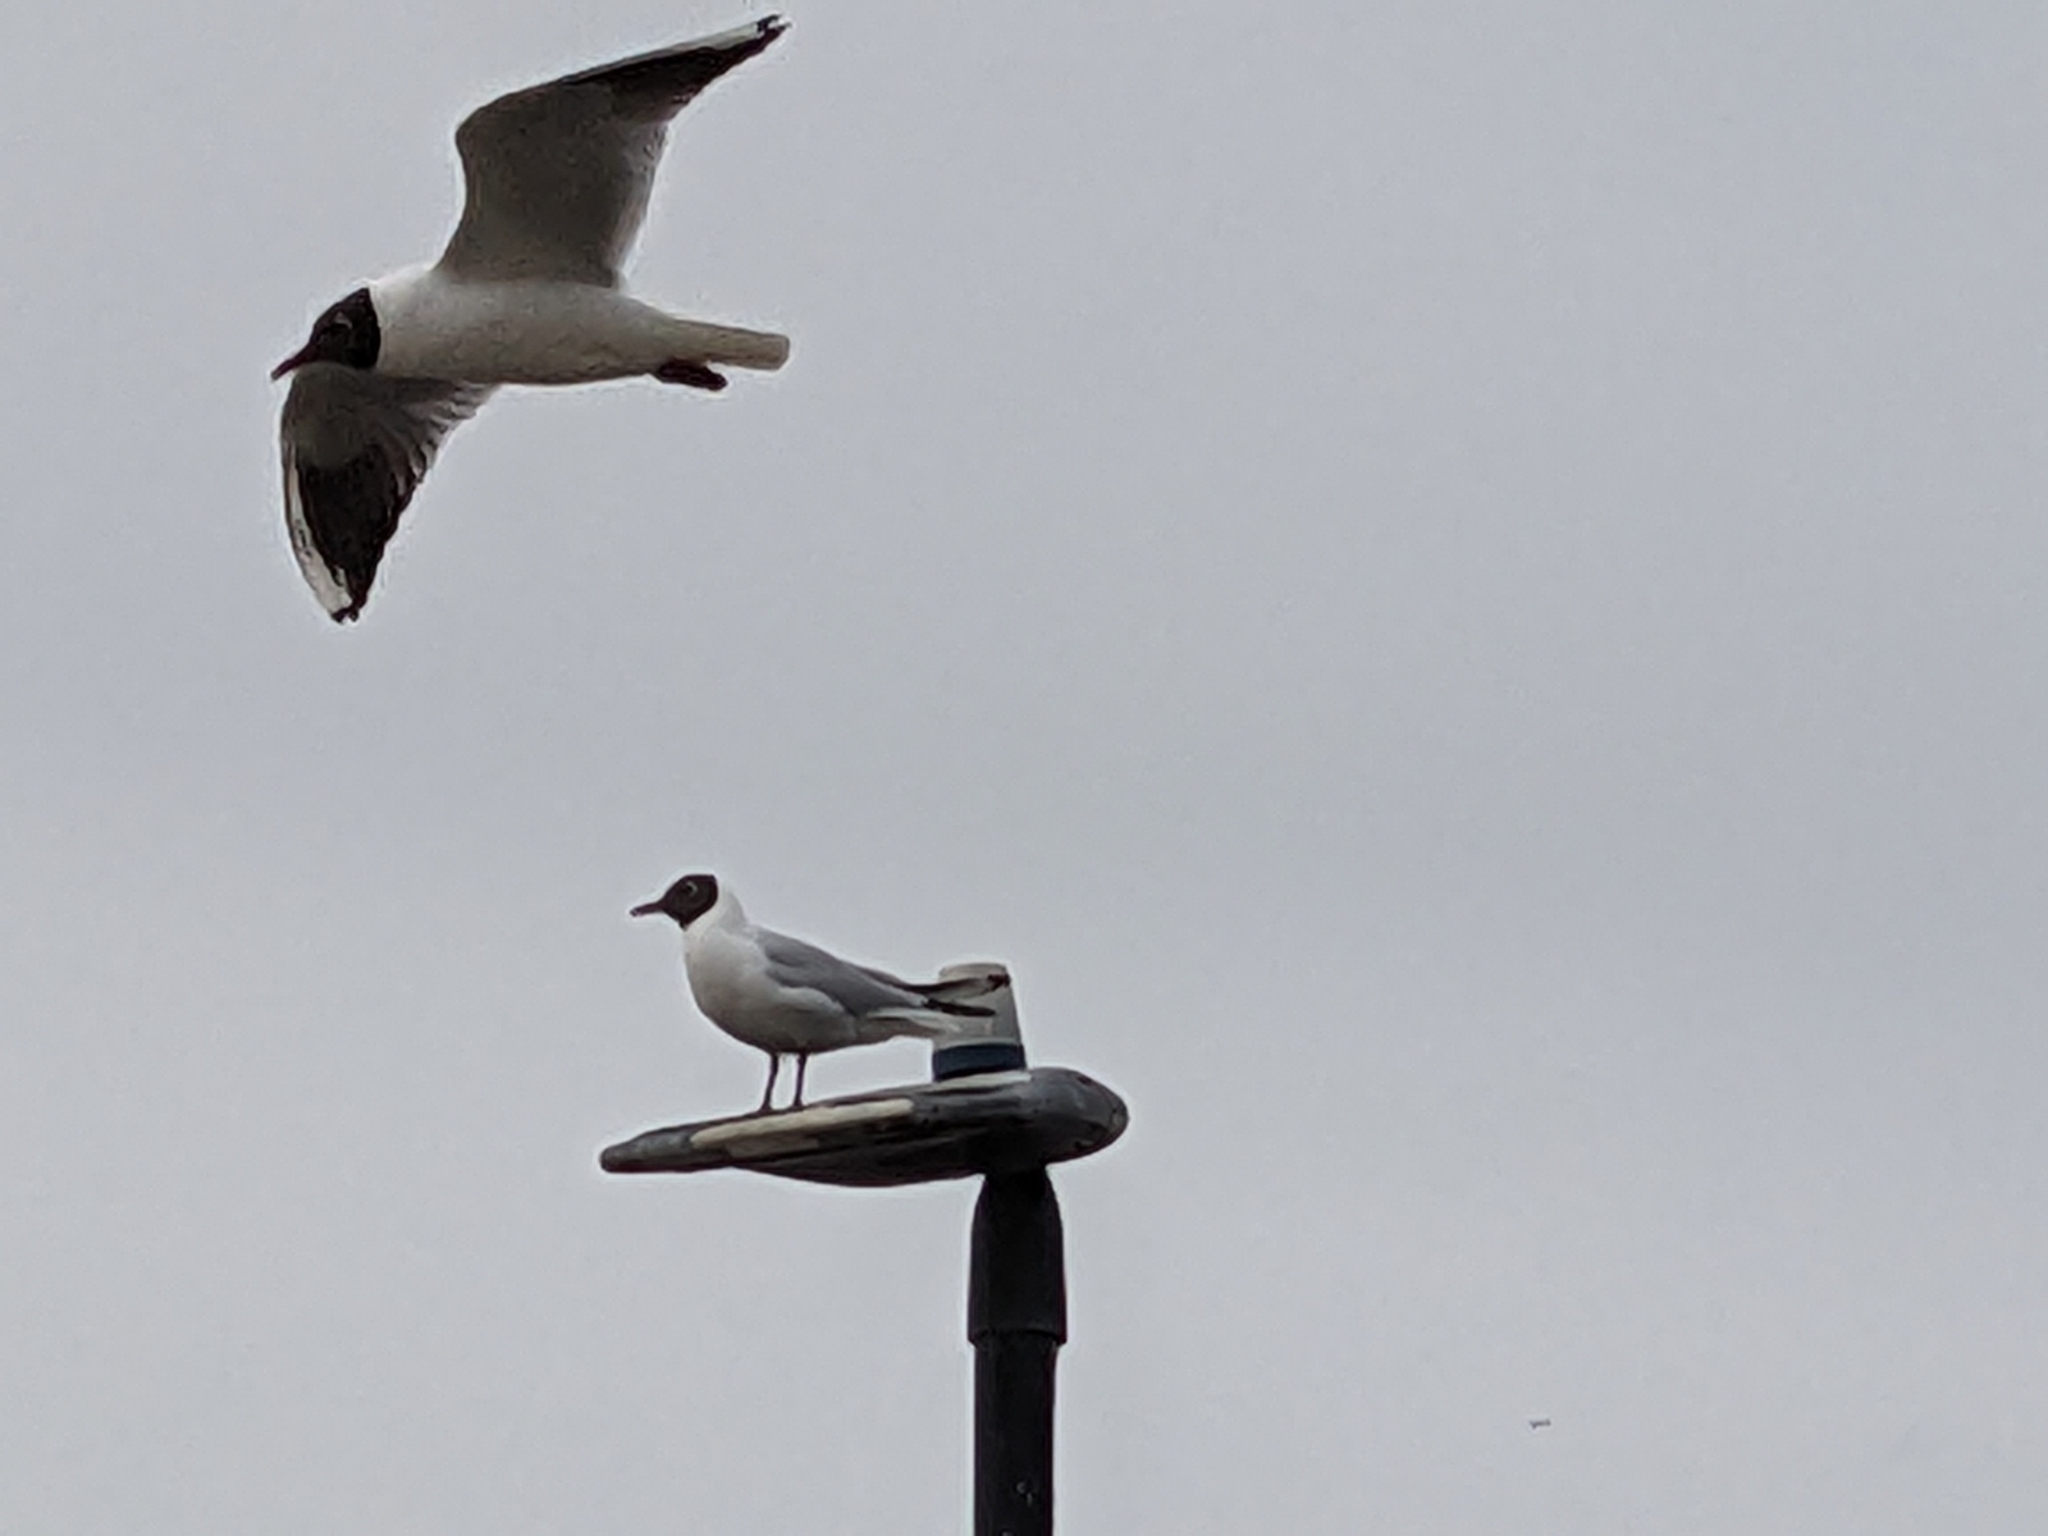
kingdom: Animalia
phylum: Chordata
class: Aves
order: Charadriiformes
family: Laridae
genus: Chroicocephalus
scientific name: Chroicocephalus ridibundus
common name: Black-headed gull
